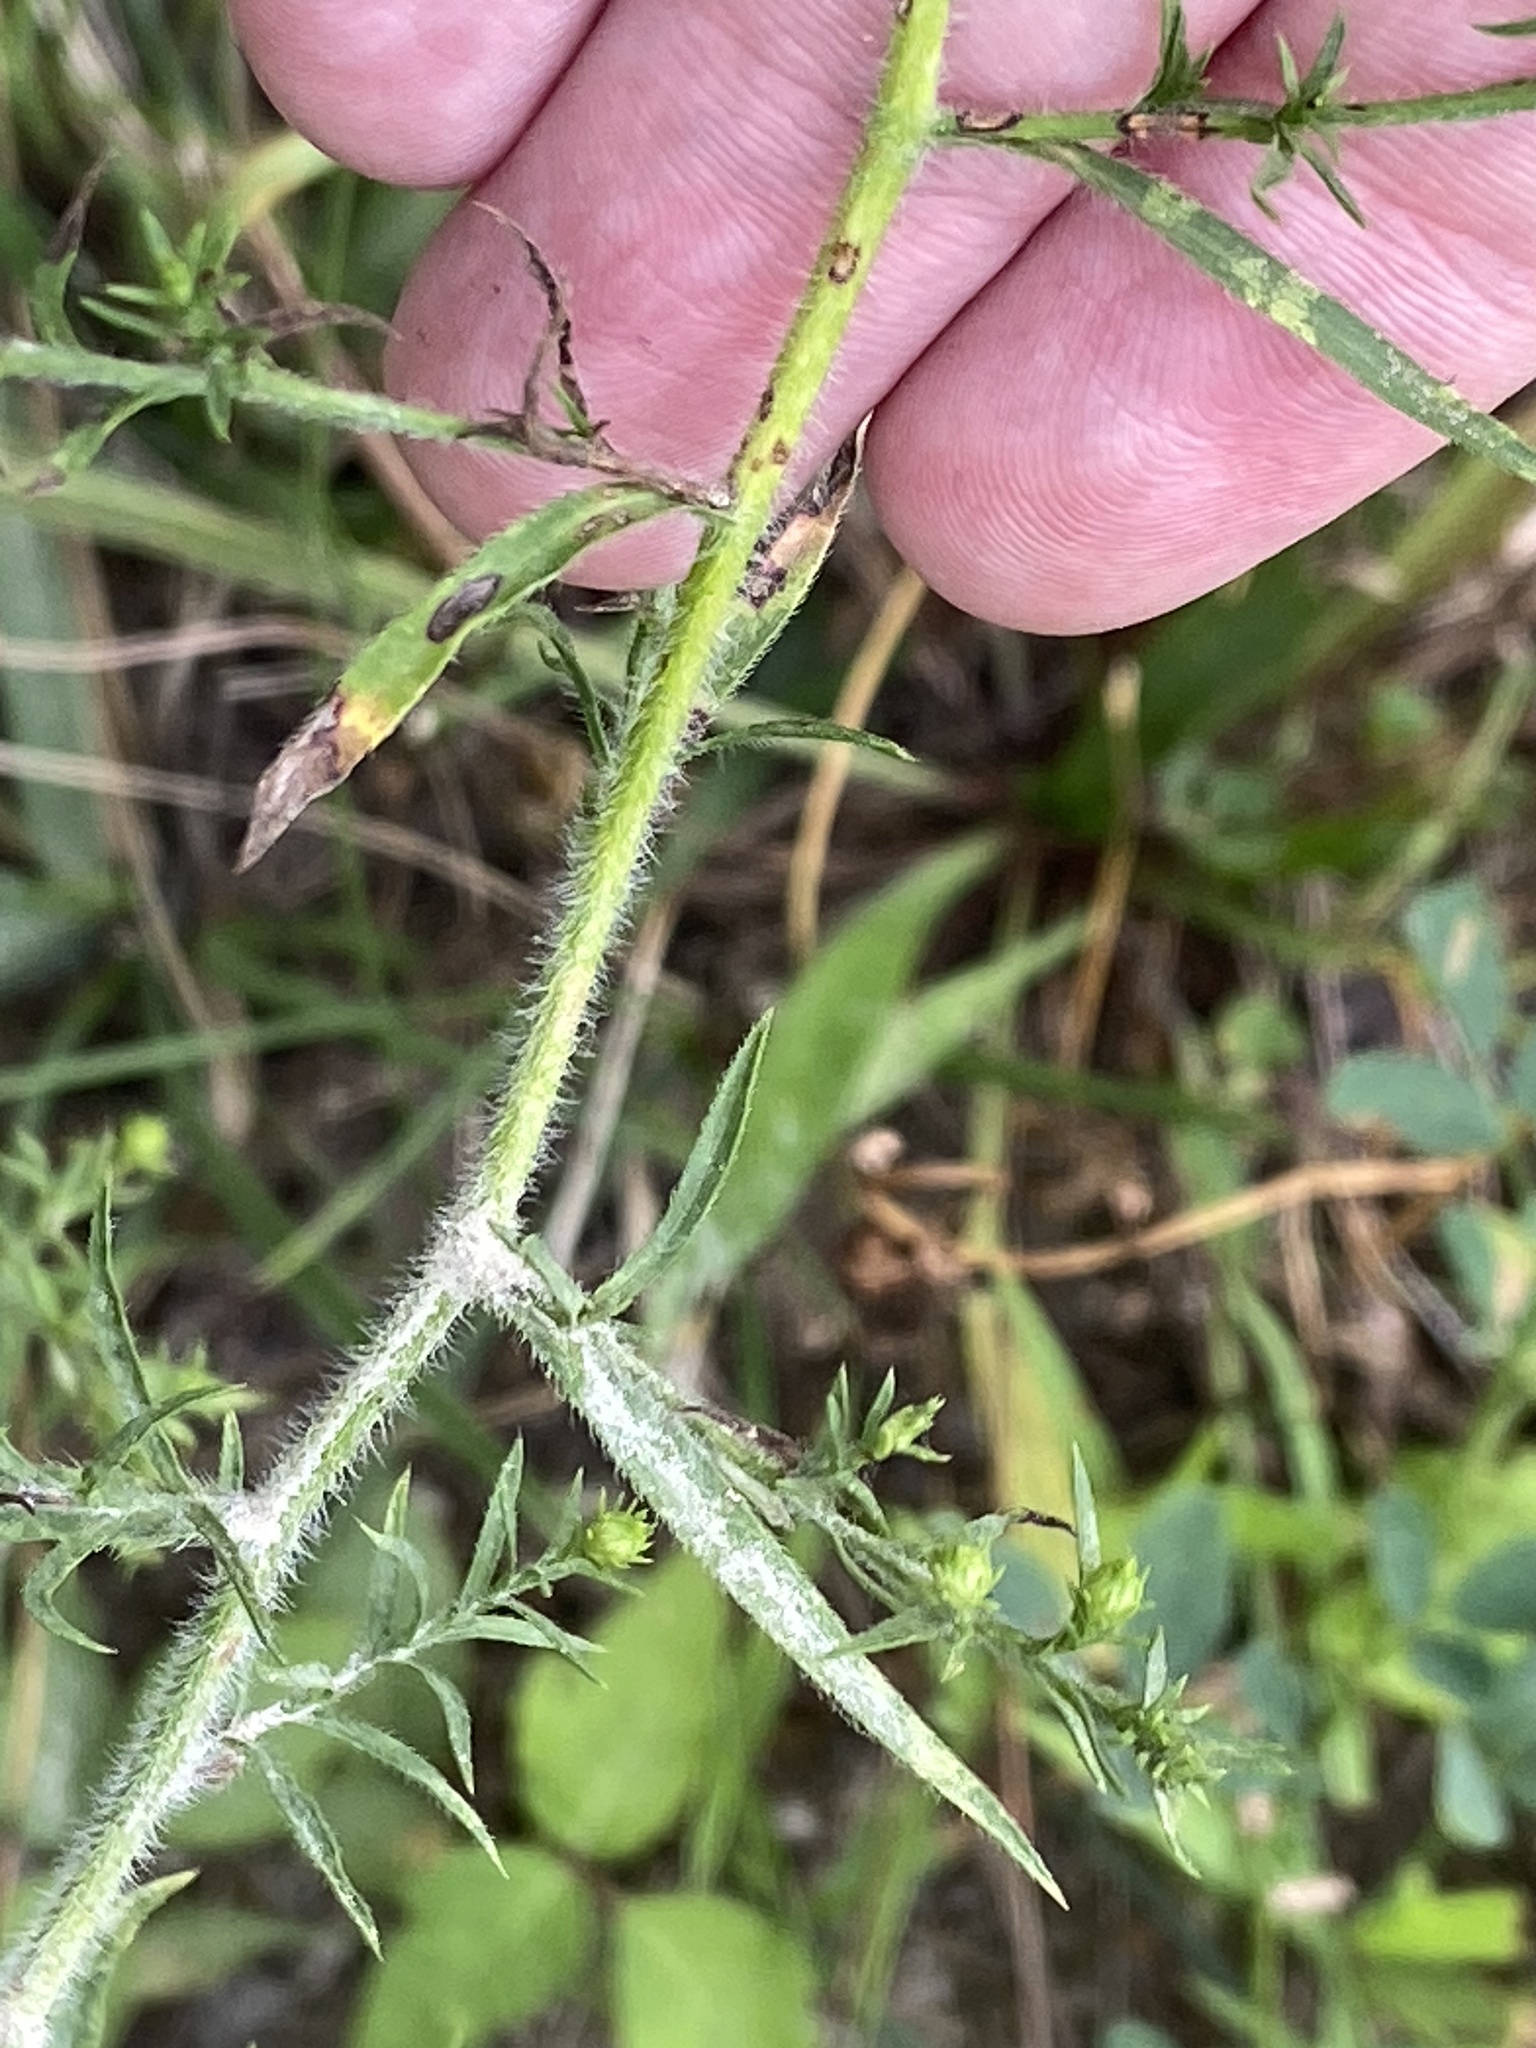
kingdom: Plantae
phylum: Tracheophyta
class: Magnoliopsida
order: Asterales
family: Asteraceae
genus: Symphyotrichum
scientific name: Symphyotrichum pilosum
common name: Awl aster
